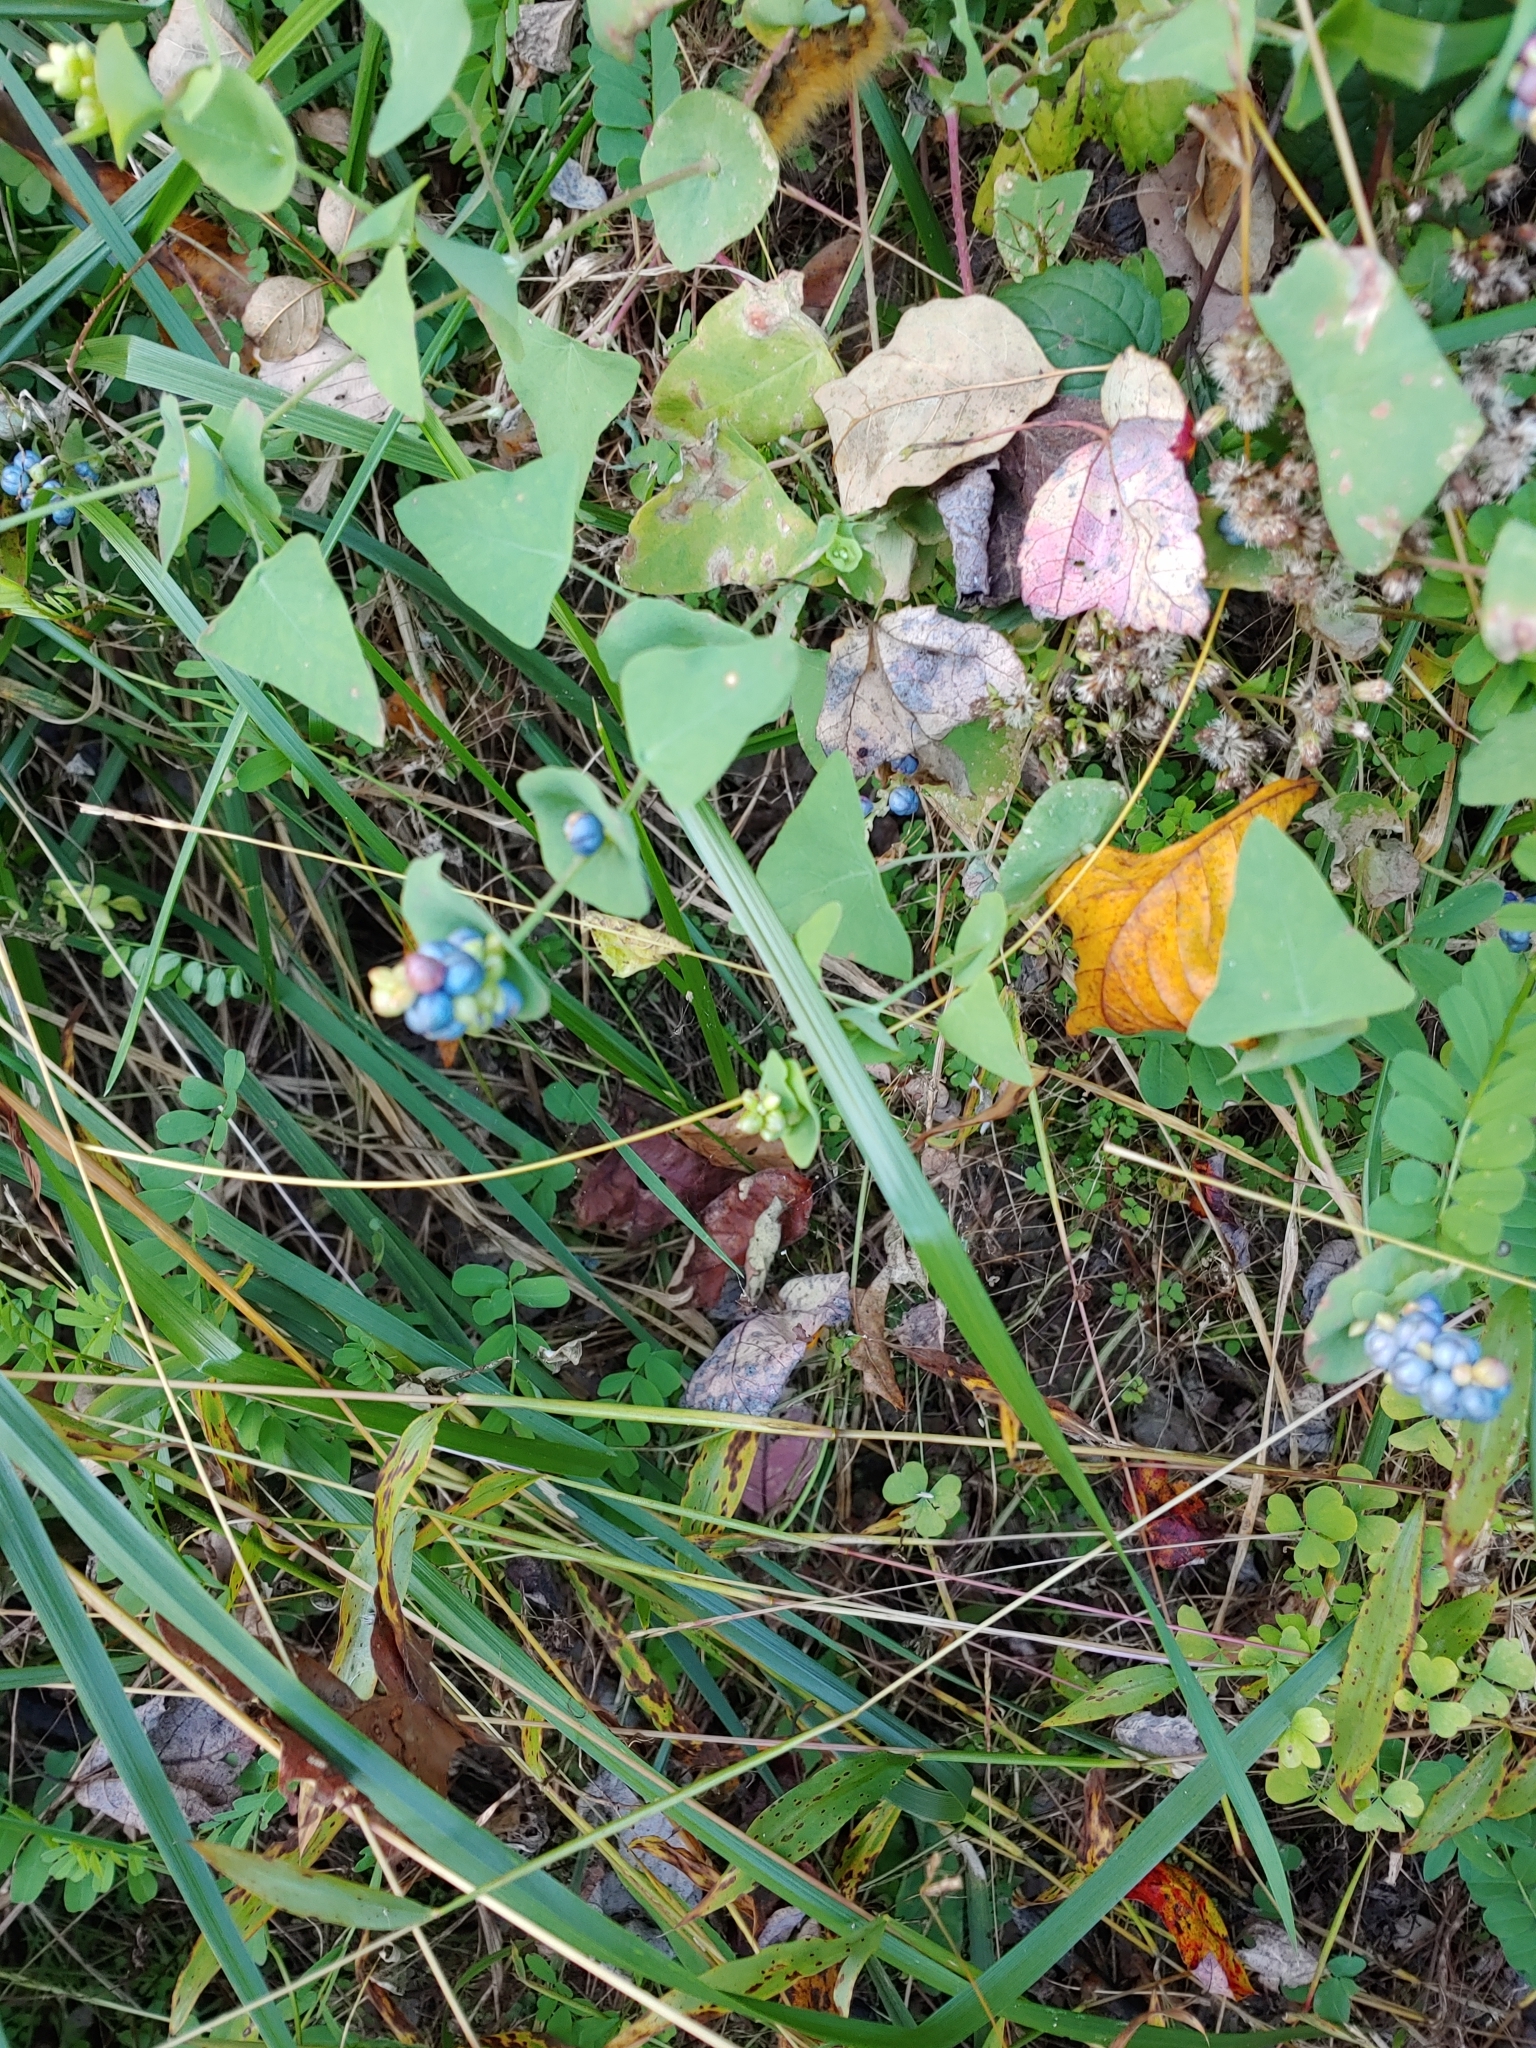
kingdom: Plantae
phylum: Tracheophyta
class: Magnoliopsida
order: Caryophyllales
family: Polygonaceae
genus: Persicaria
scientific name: Persicaria perfoliata
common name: Asiatic tearthumb
